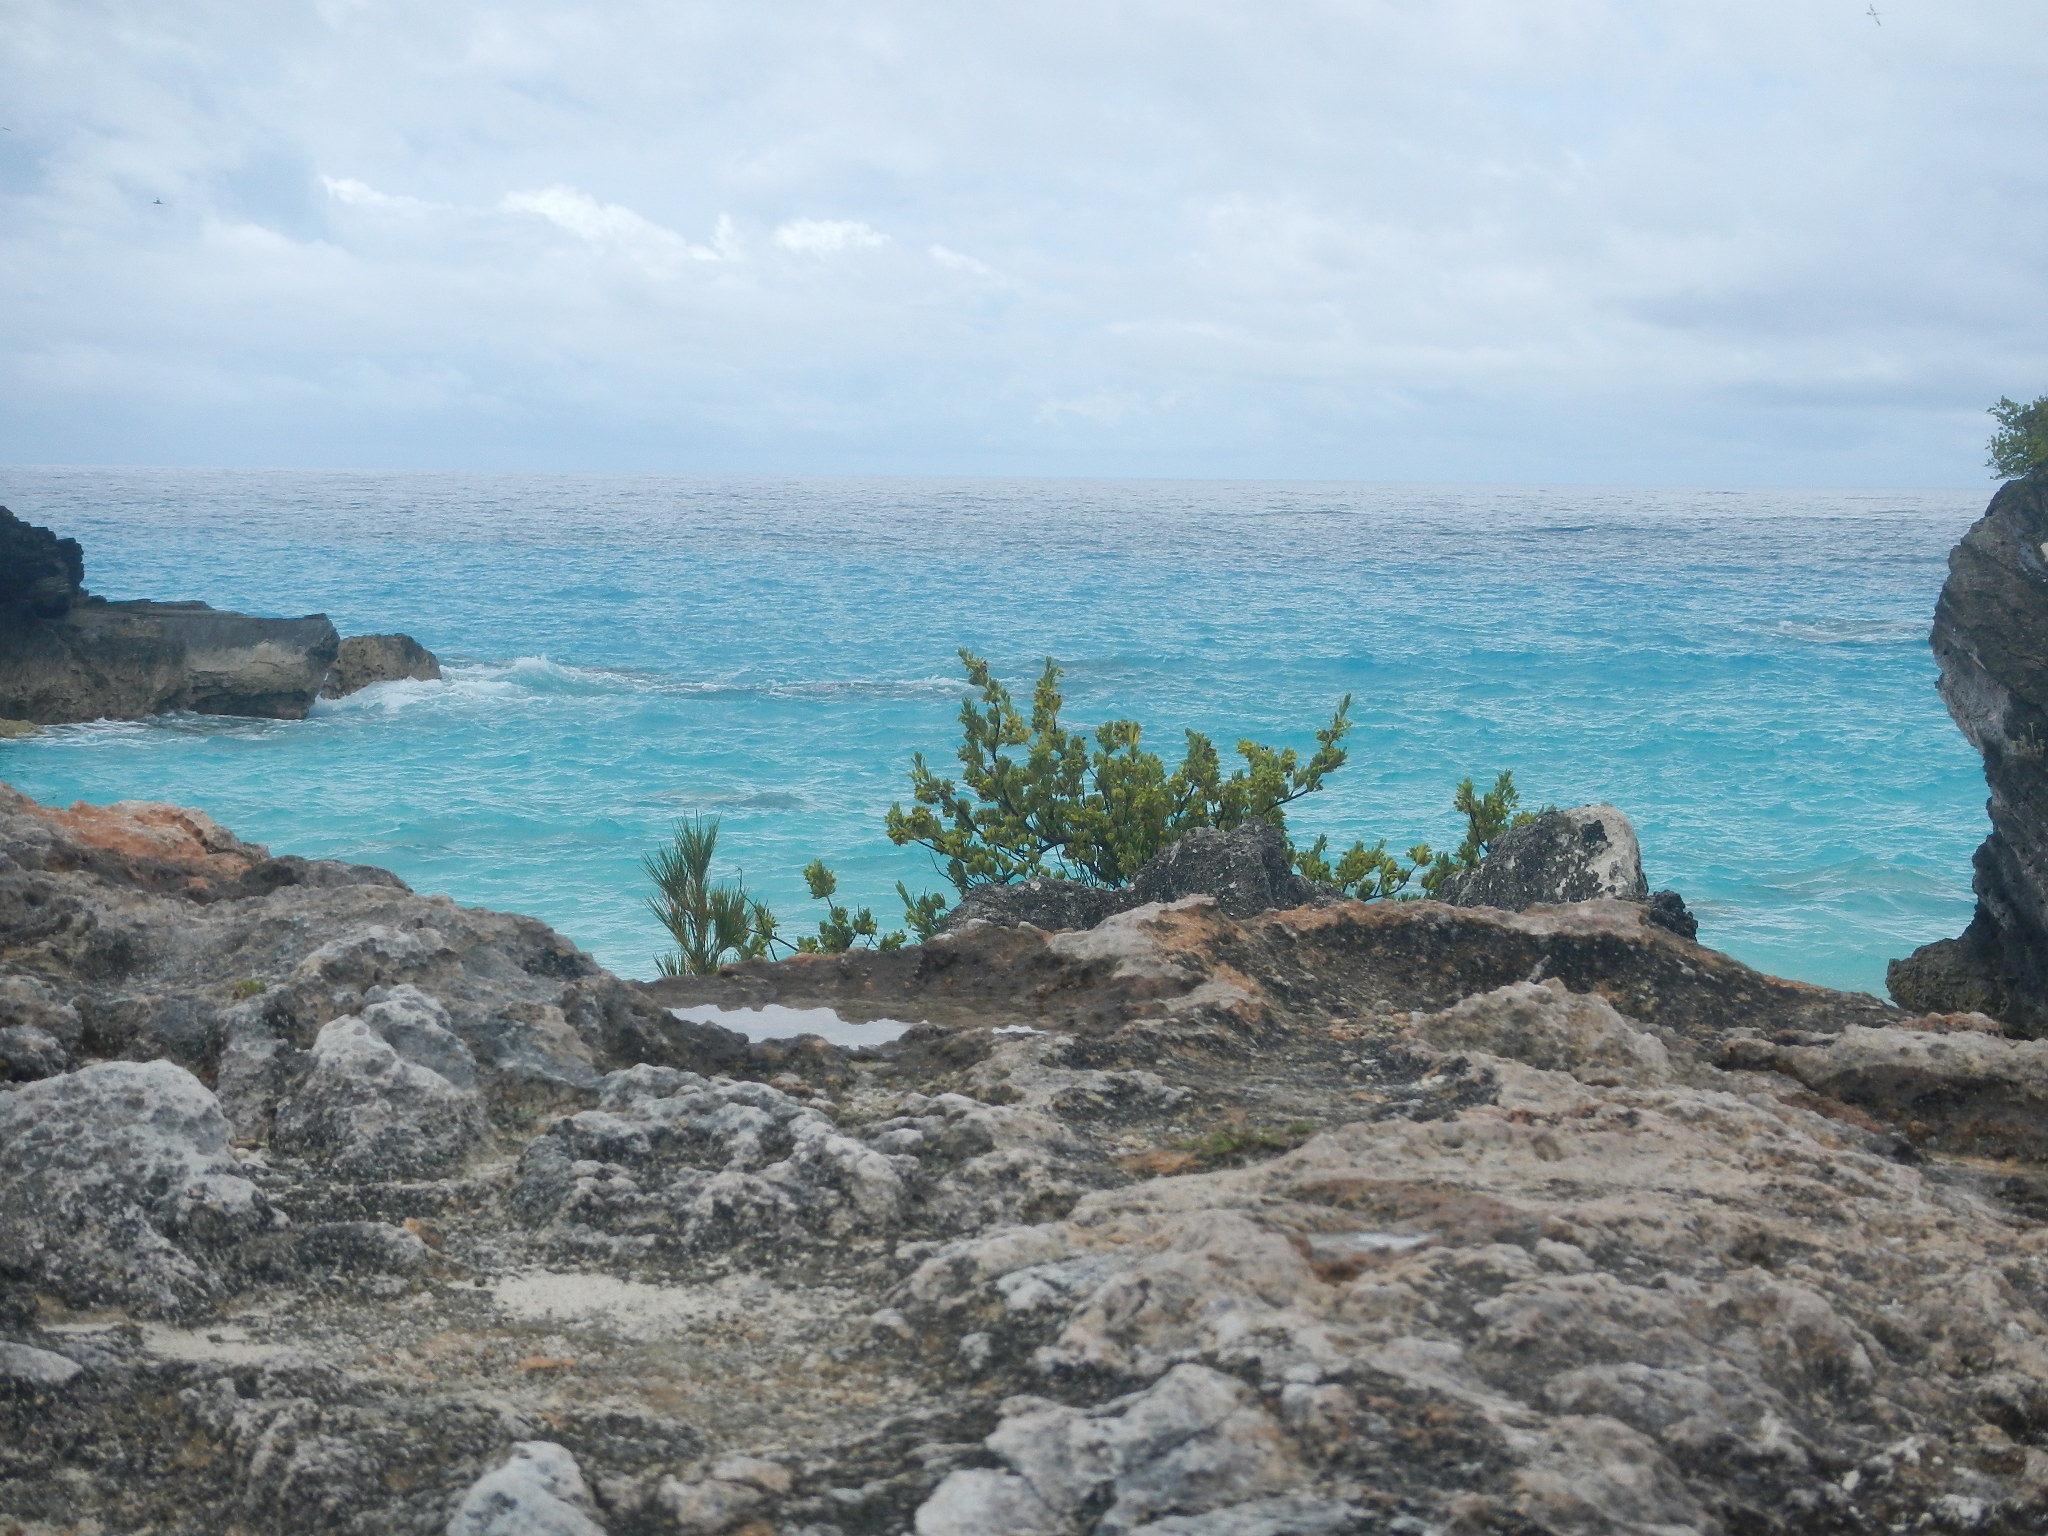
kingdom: Plantae
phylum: Tracheophyta
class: Magnoliopsida
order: Fabales
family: Surianaceae
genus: Suriana
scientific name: Suriana maritima
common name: Bay-cedar
